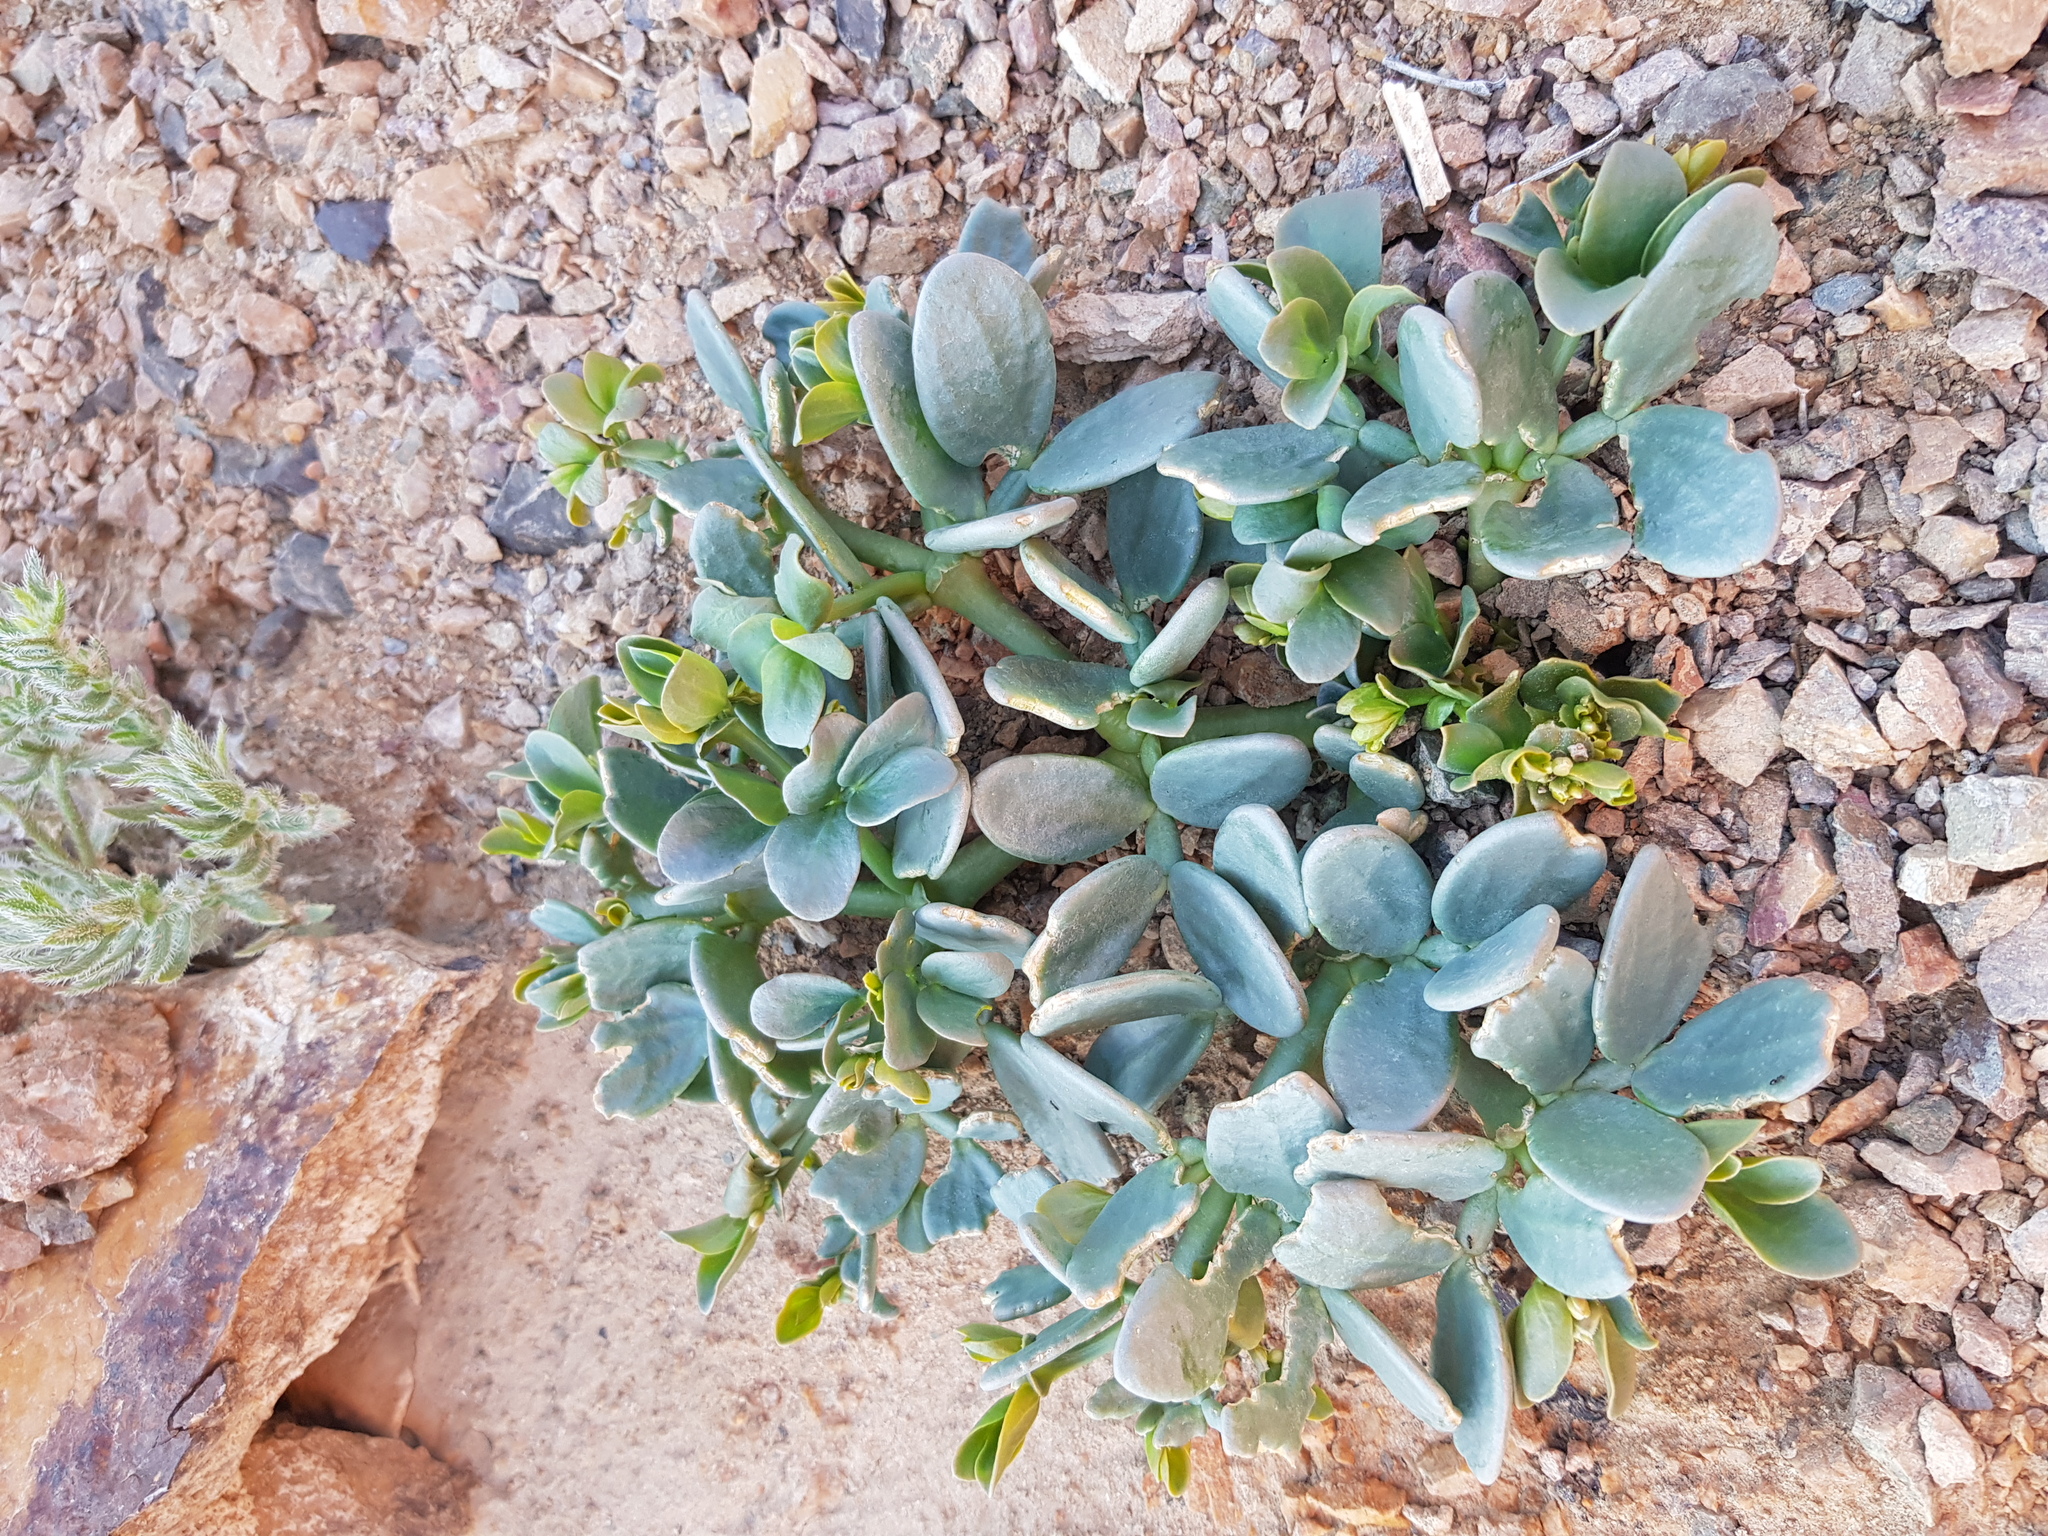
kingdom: Plantae
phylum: Tracheophyta
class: Magnoliopsida
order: Zygophyllales
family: Zygophyllaceae
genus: Zygophyllum
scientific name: Zygophyllum potaninii
